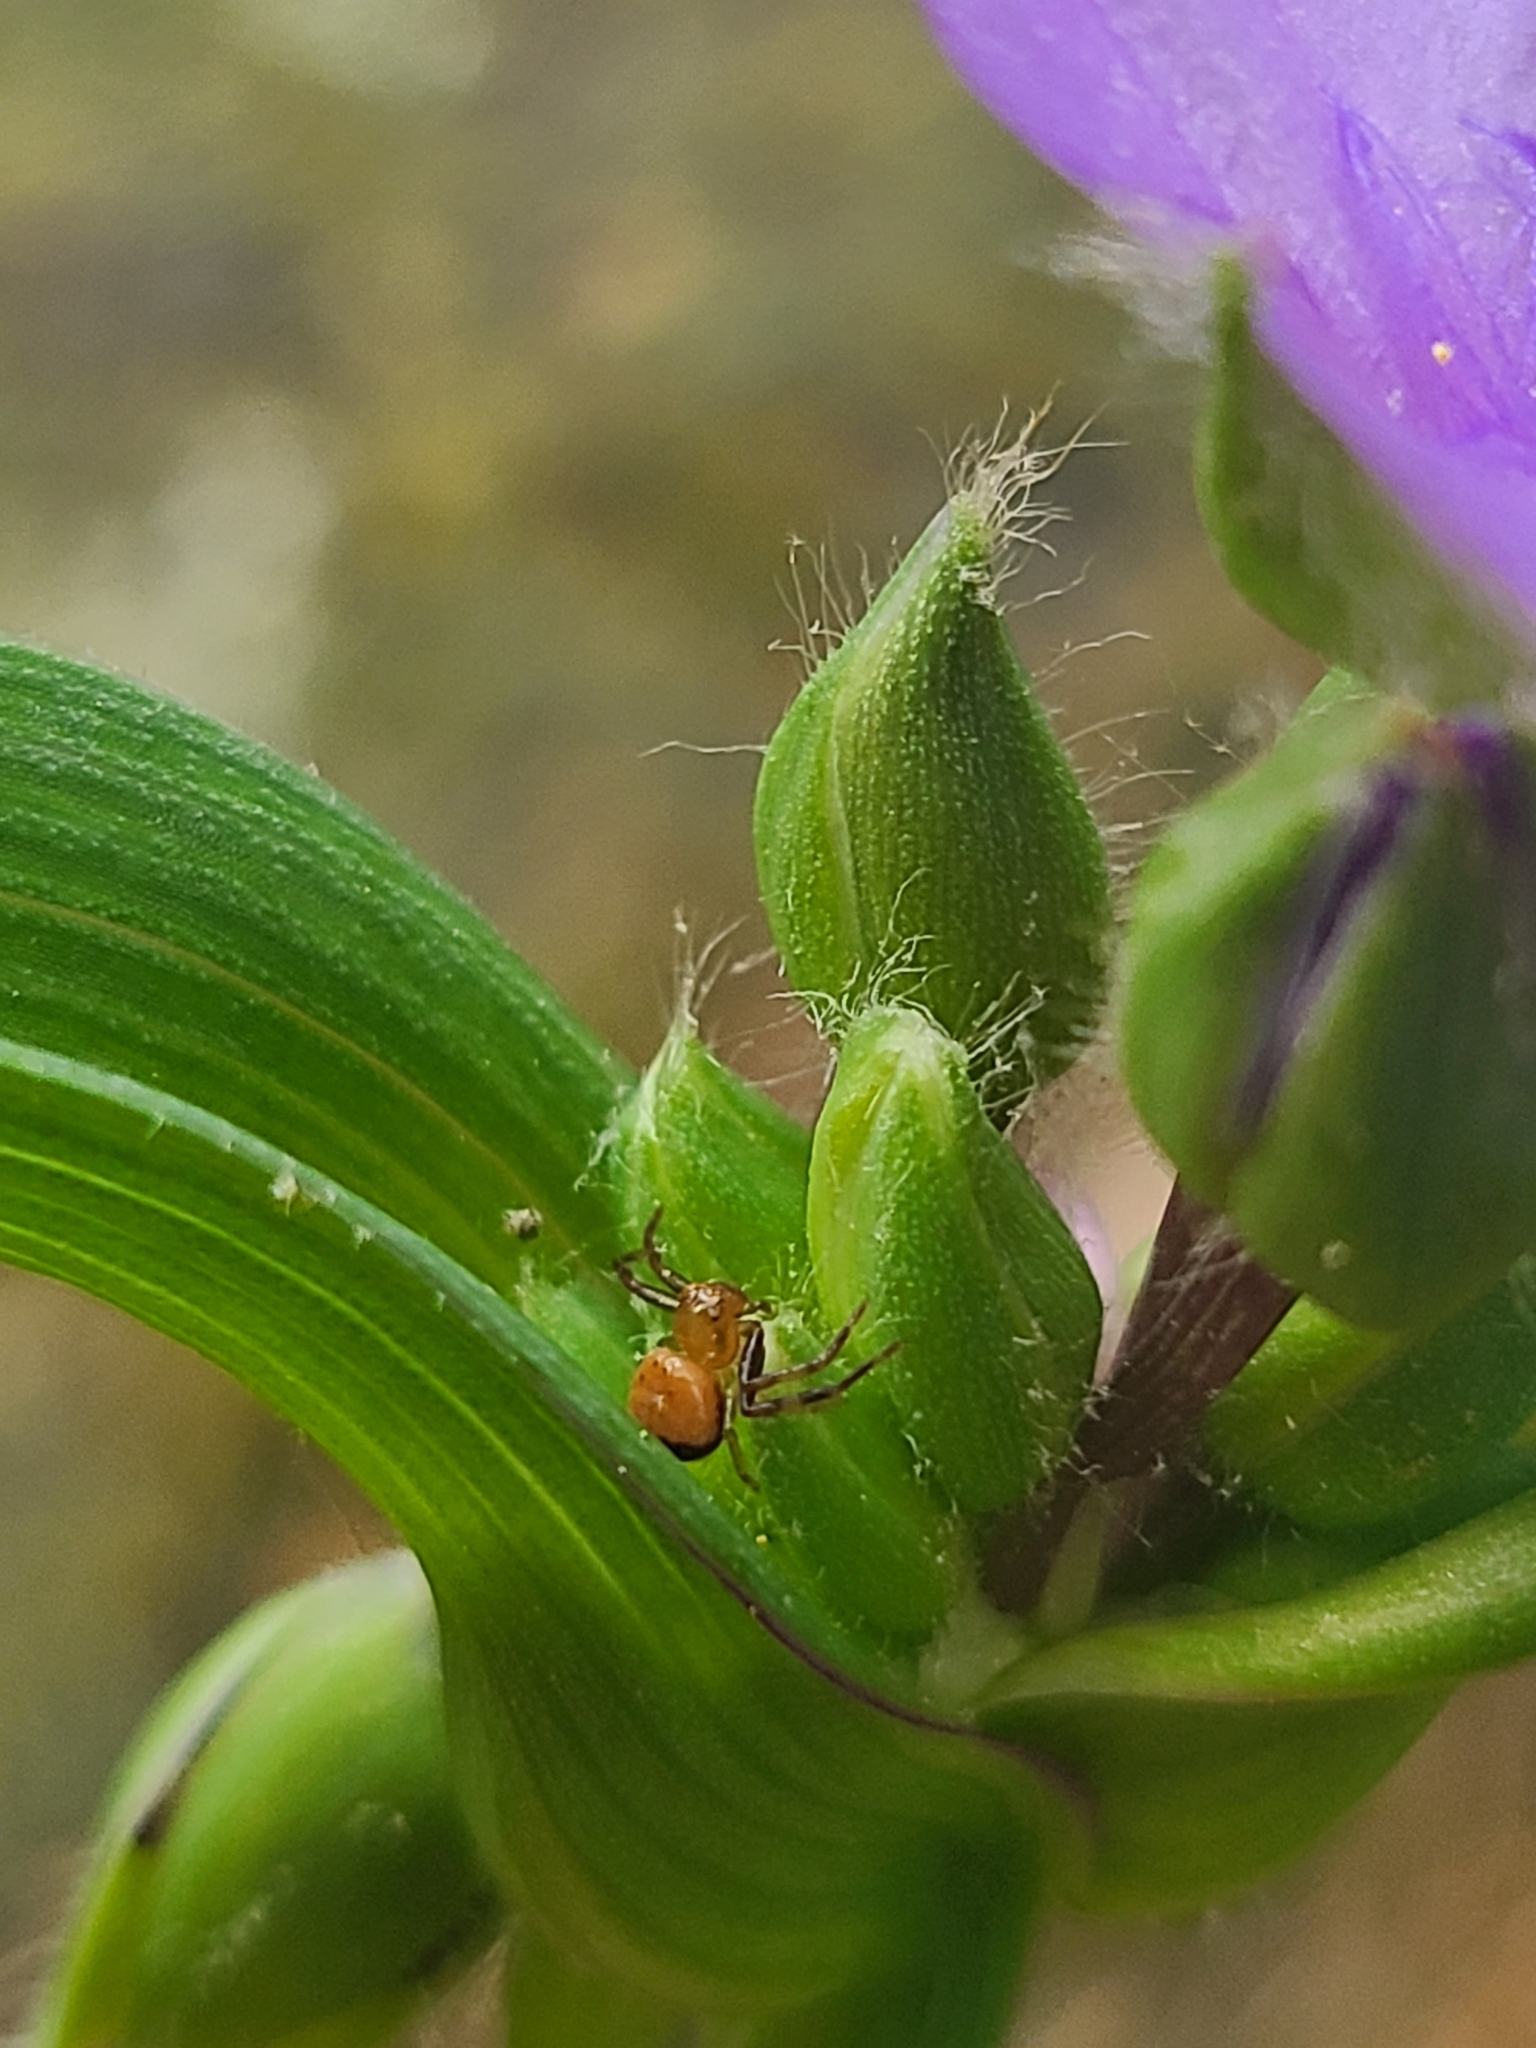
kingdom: Animalia
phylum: Arthropoda
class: Arachnida
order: Araneae
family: Thomisidae
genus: Synema
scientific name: Synema parvulum
